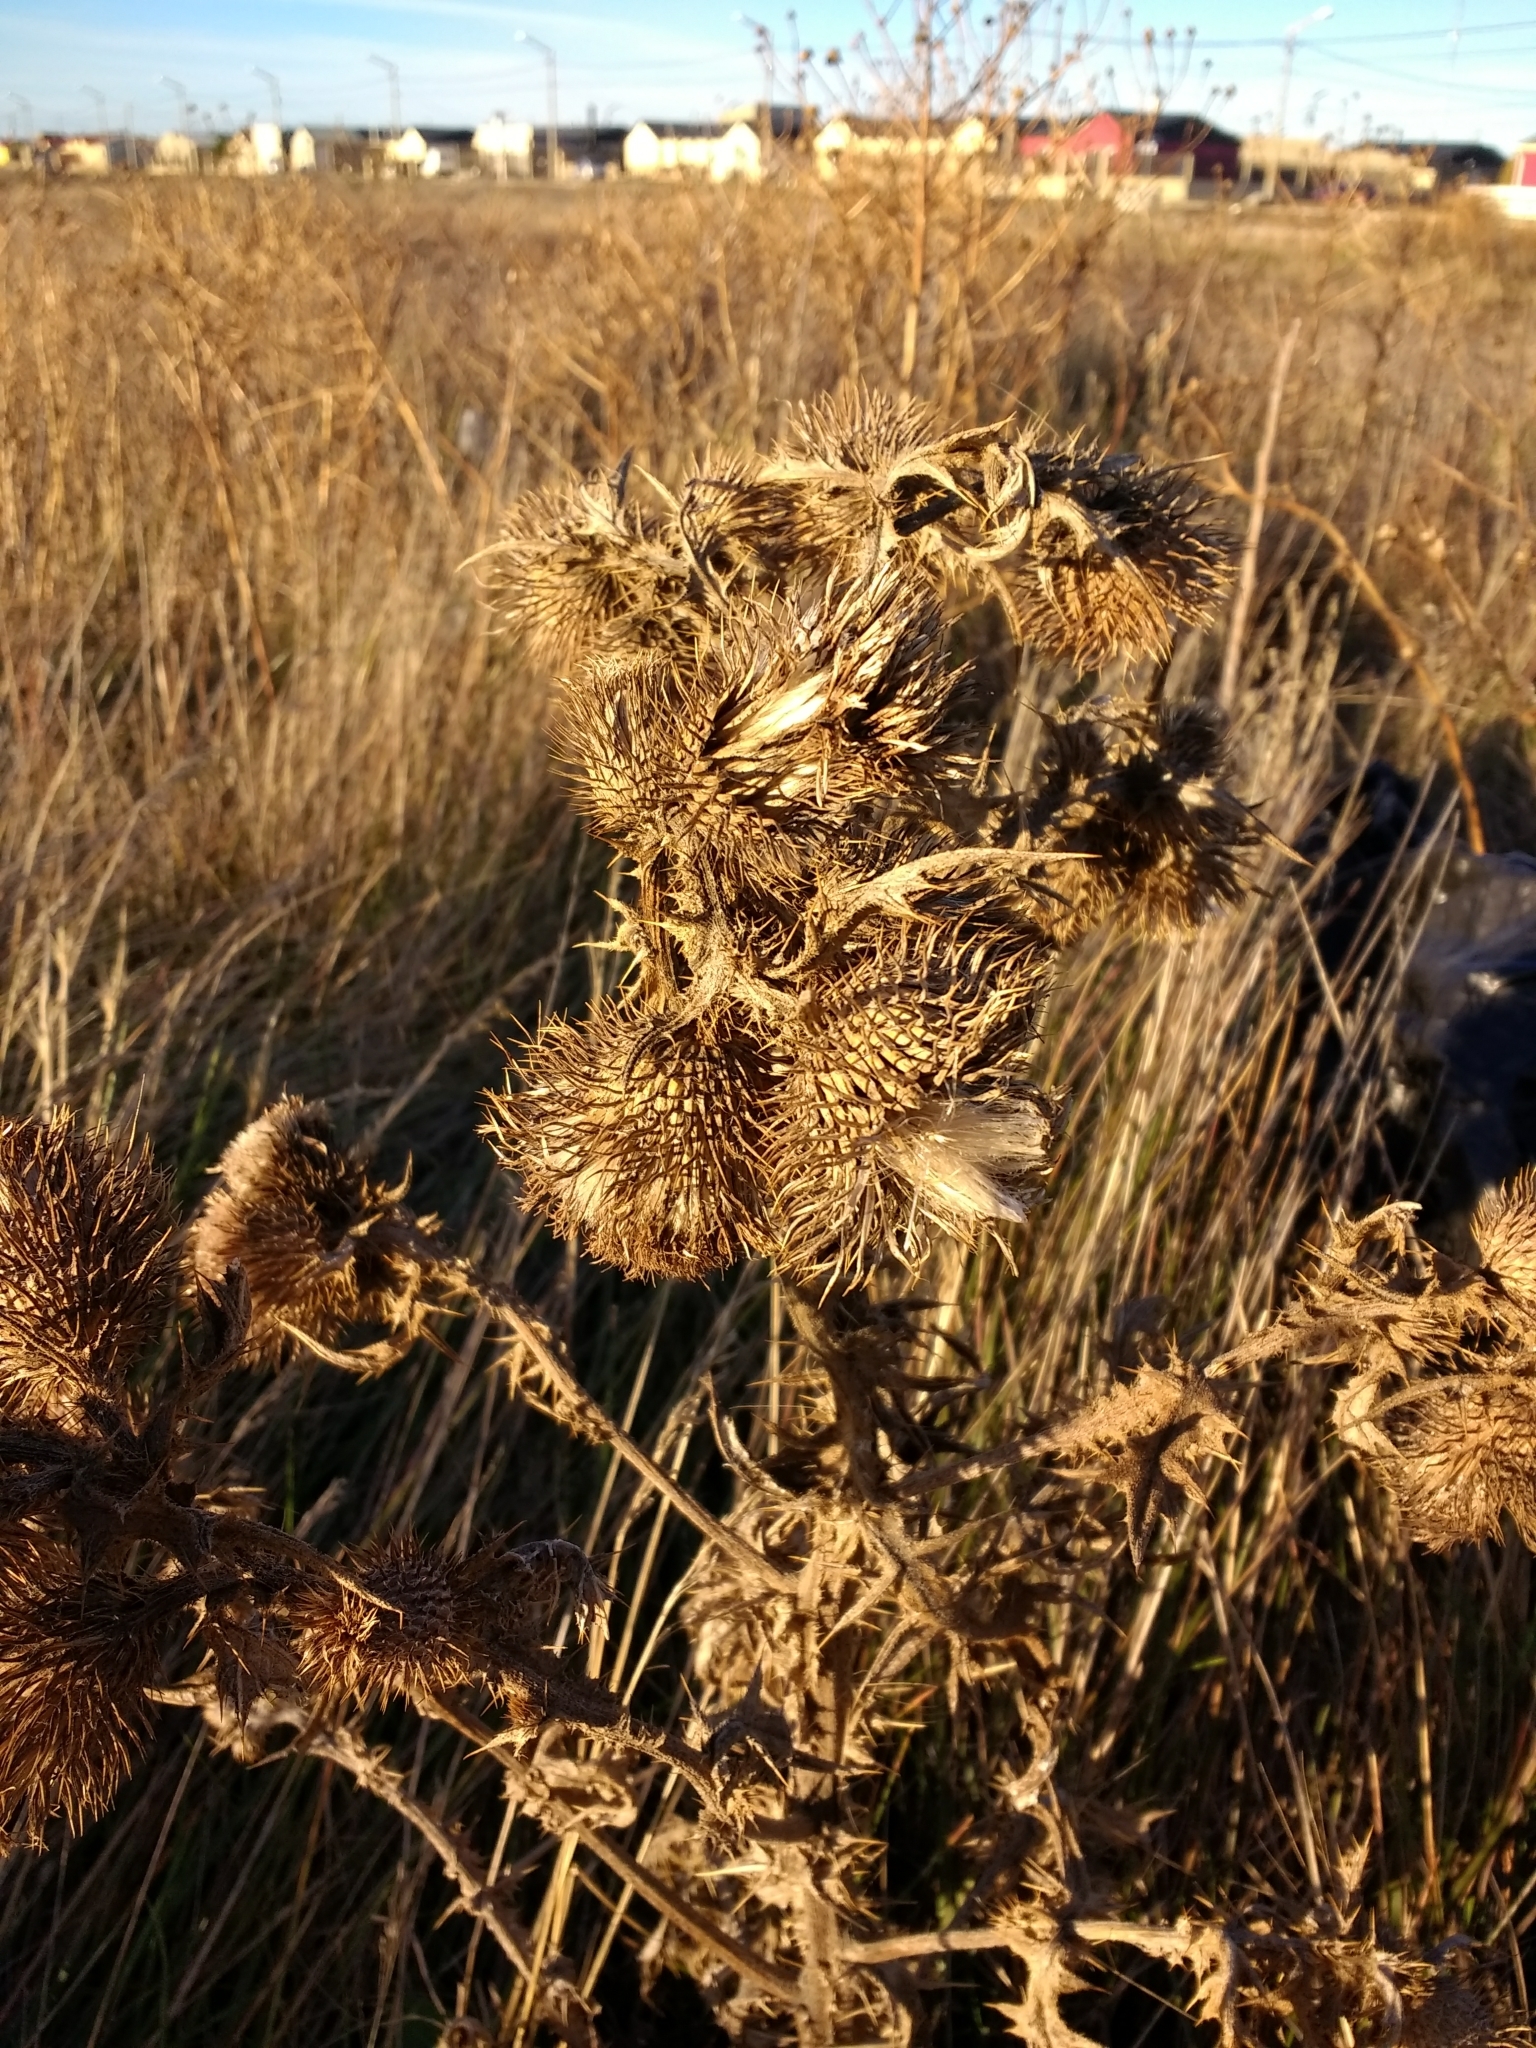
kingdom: Plantae
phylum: Tracheophyta
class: Magnoliopsida
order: Asterales
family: Asteraceae
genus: Cirsium
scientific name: Cirsium vulgare
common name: Bull thistle
